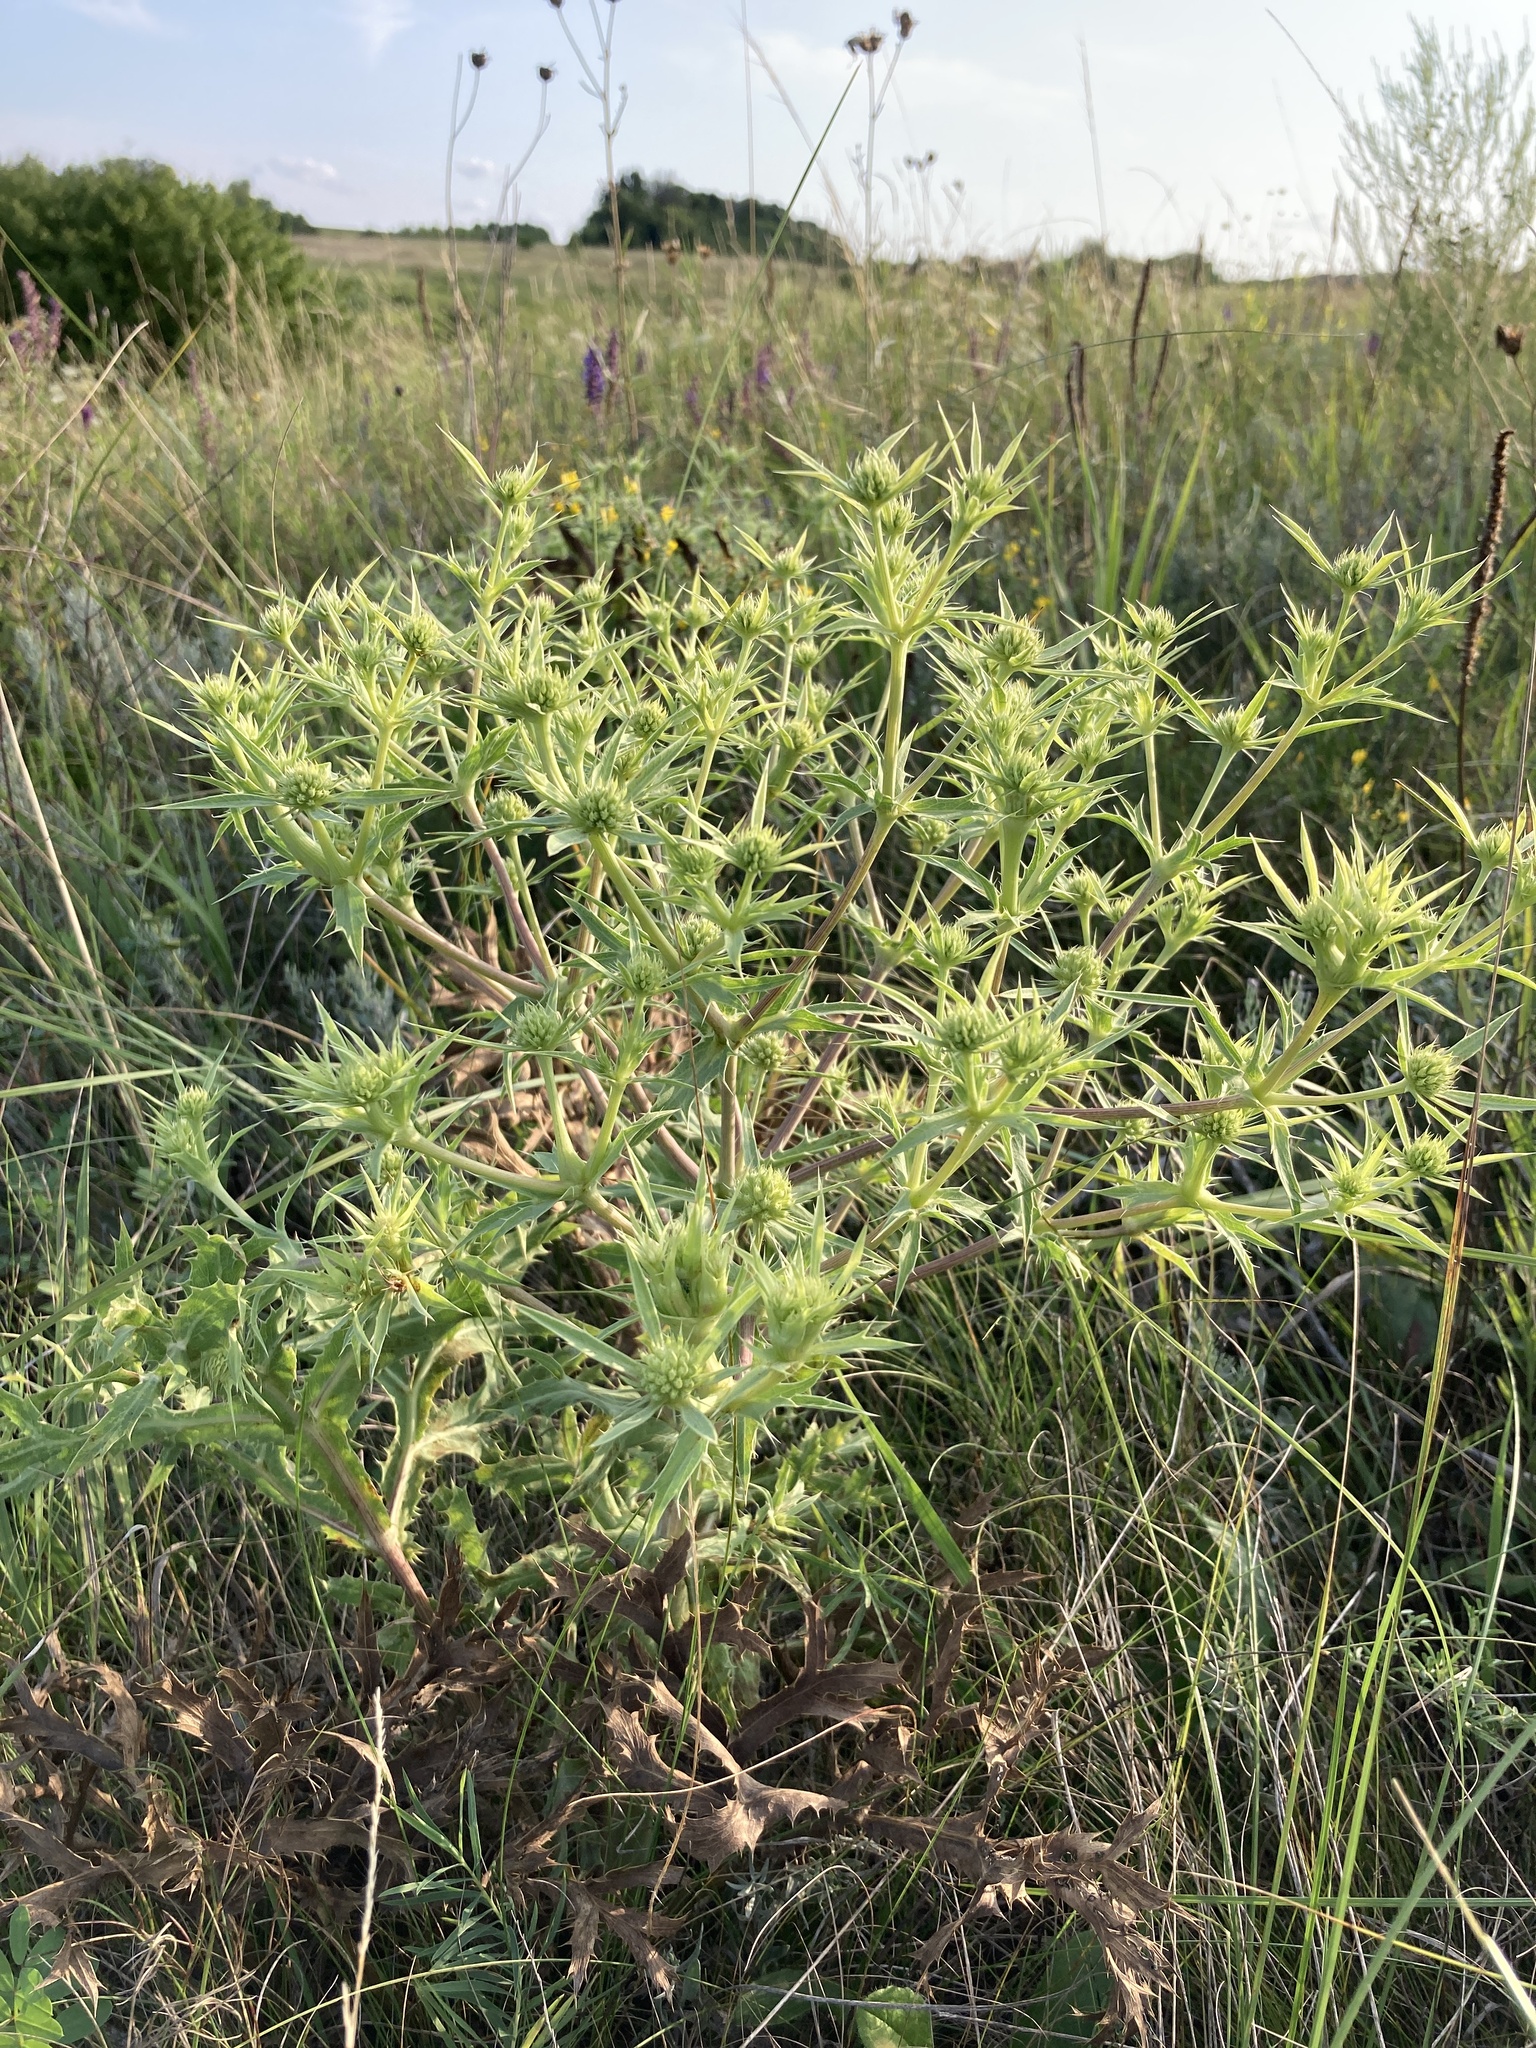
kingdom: Plantae
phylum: Tracheophyta
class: Magnoliopsida
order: Apiales
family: Apiaceae
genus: Eryngium
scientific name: Eryngium campestre
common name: Field eryngo
